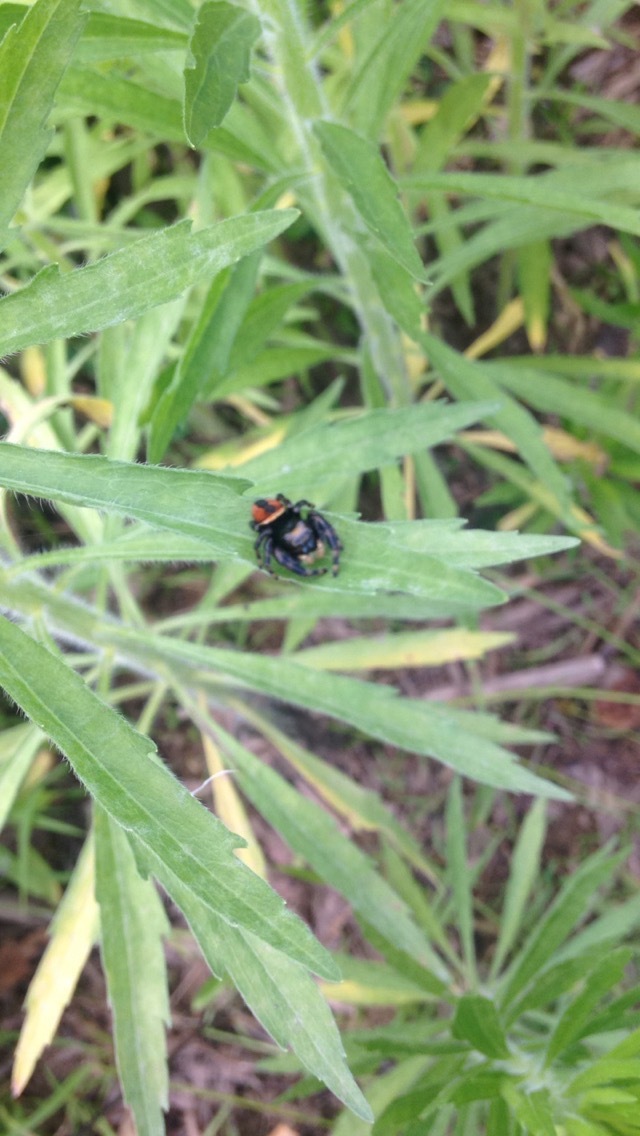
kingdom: Animalia
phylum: Arthropoda
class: Arachnida
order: Araneae
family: Salticidae
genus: Phidippus
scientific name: Phidippus clarus
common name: Brilliant jumping spider
